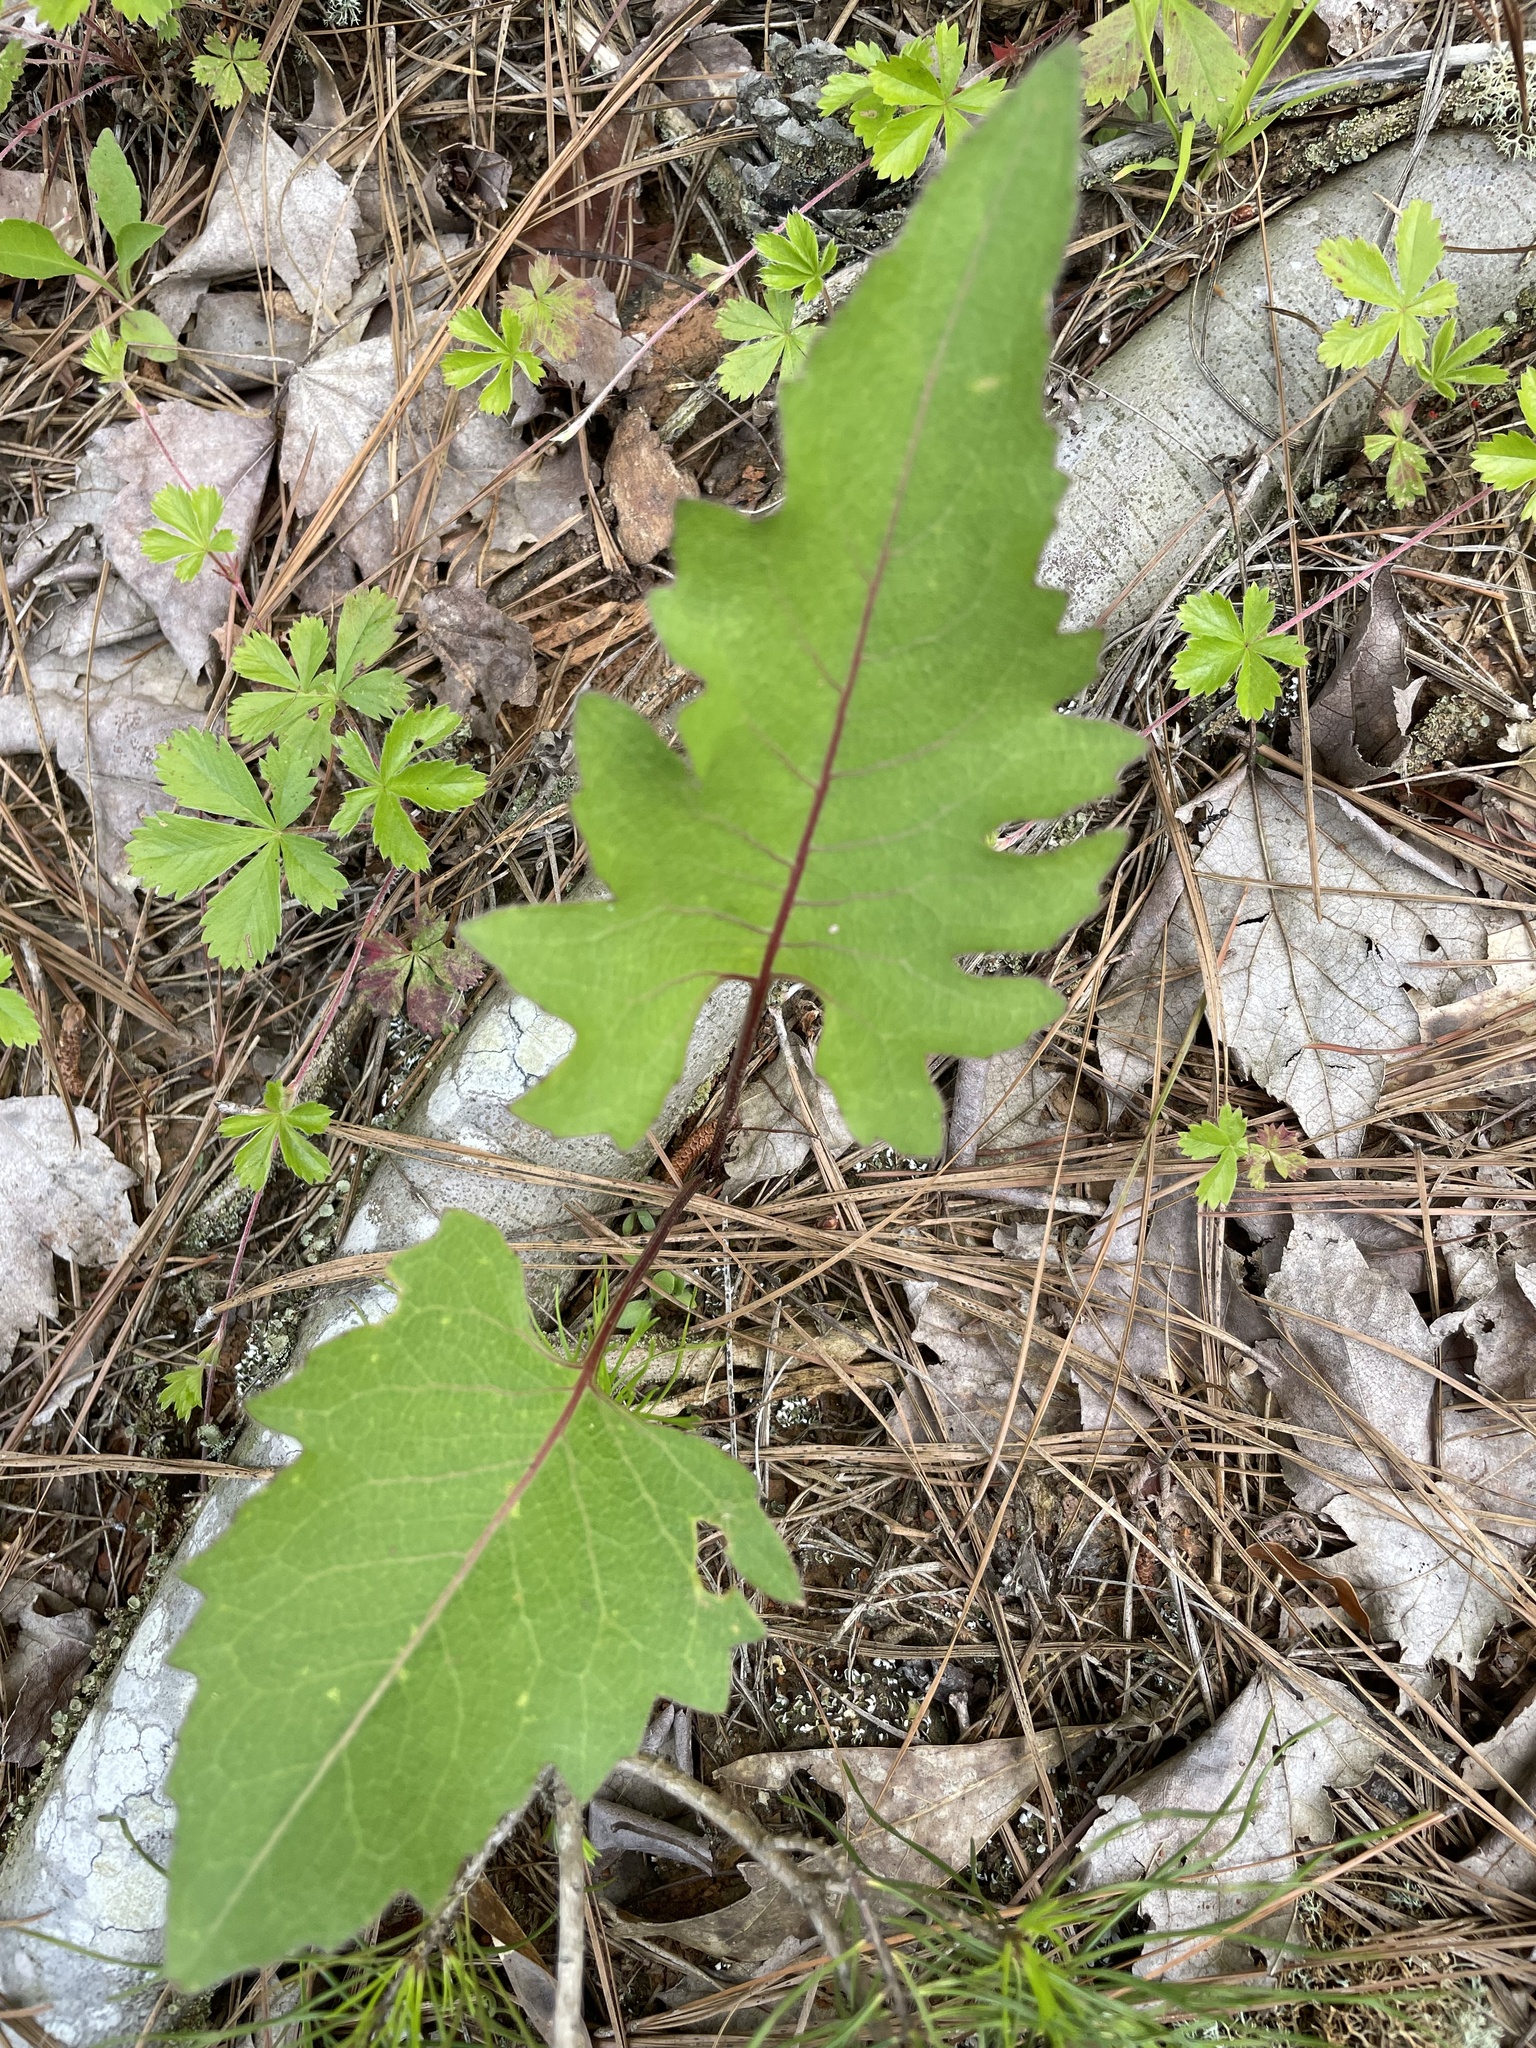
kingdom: Plantae
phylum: Tracheophyta
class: Magnoliopsida
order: Asterales
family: Asteraceae
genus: Silphium
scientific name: Silphium compositum
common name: Lesser basal-leaf rosinweed
